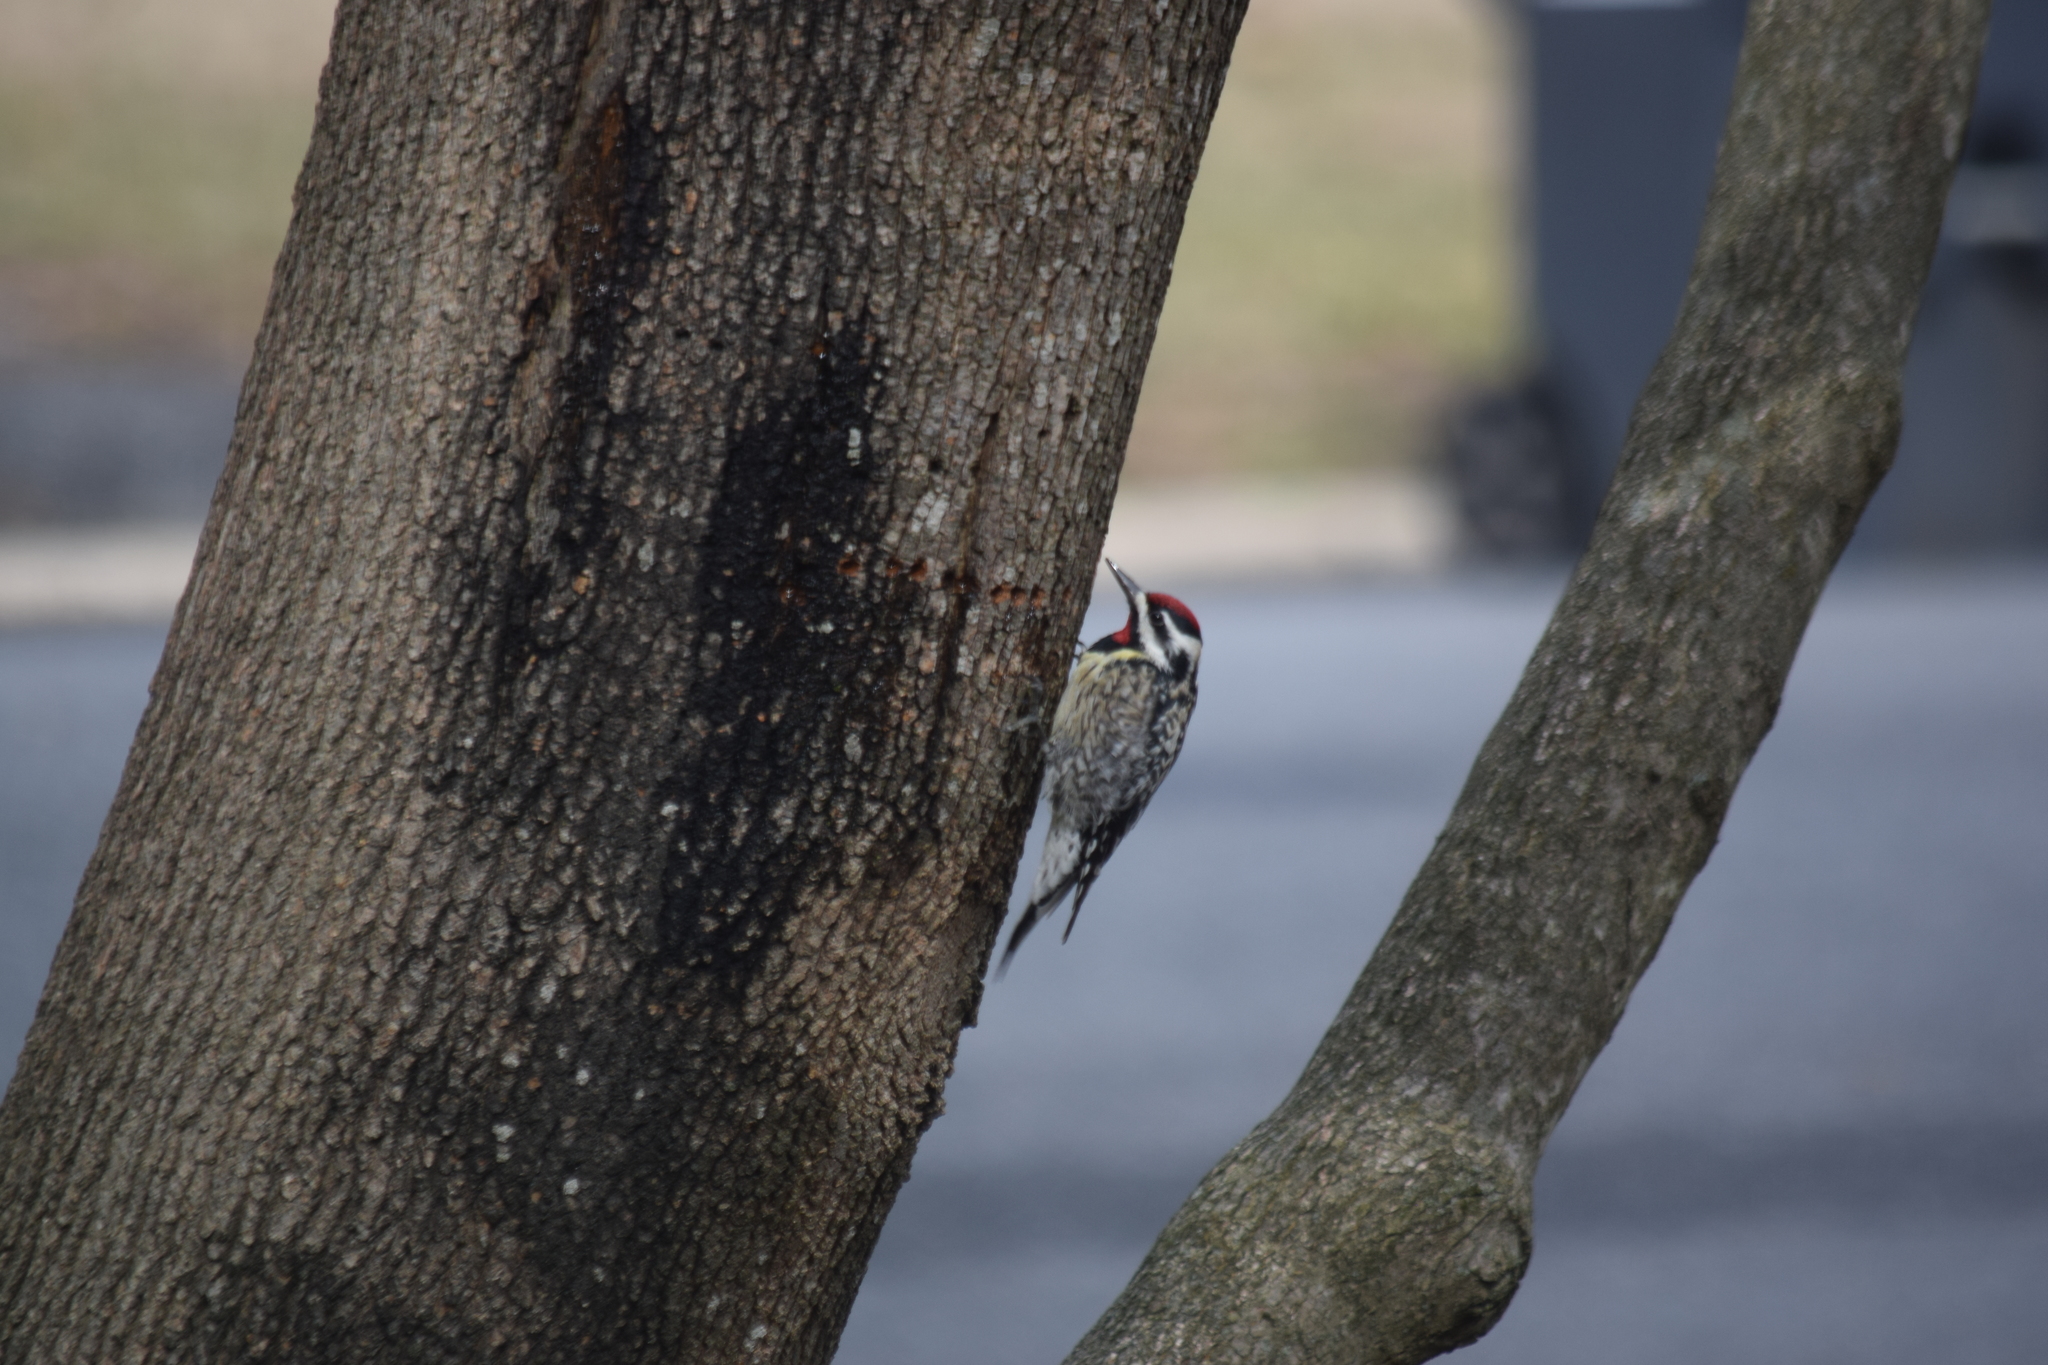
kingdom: Animalia
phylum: Chordata
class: Aves
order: Piciformes
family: Picidae
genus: Sphyrapicus
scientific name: Sphyrapicus varius
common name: Yellow-bellied sapsucker
